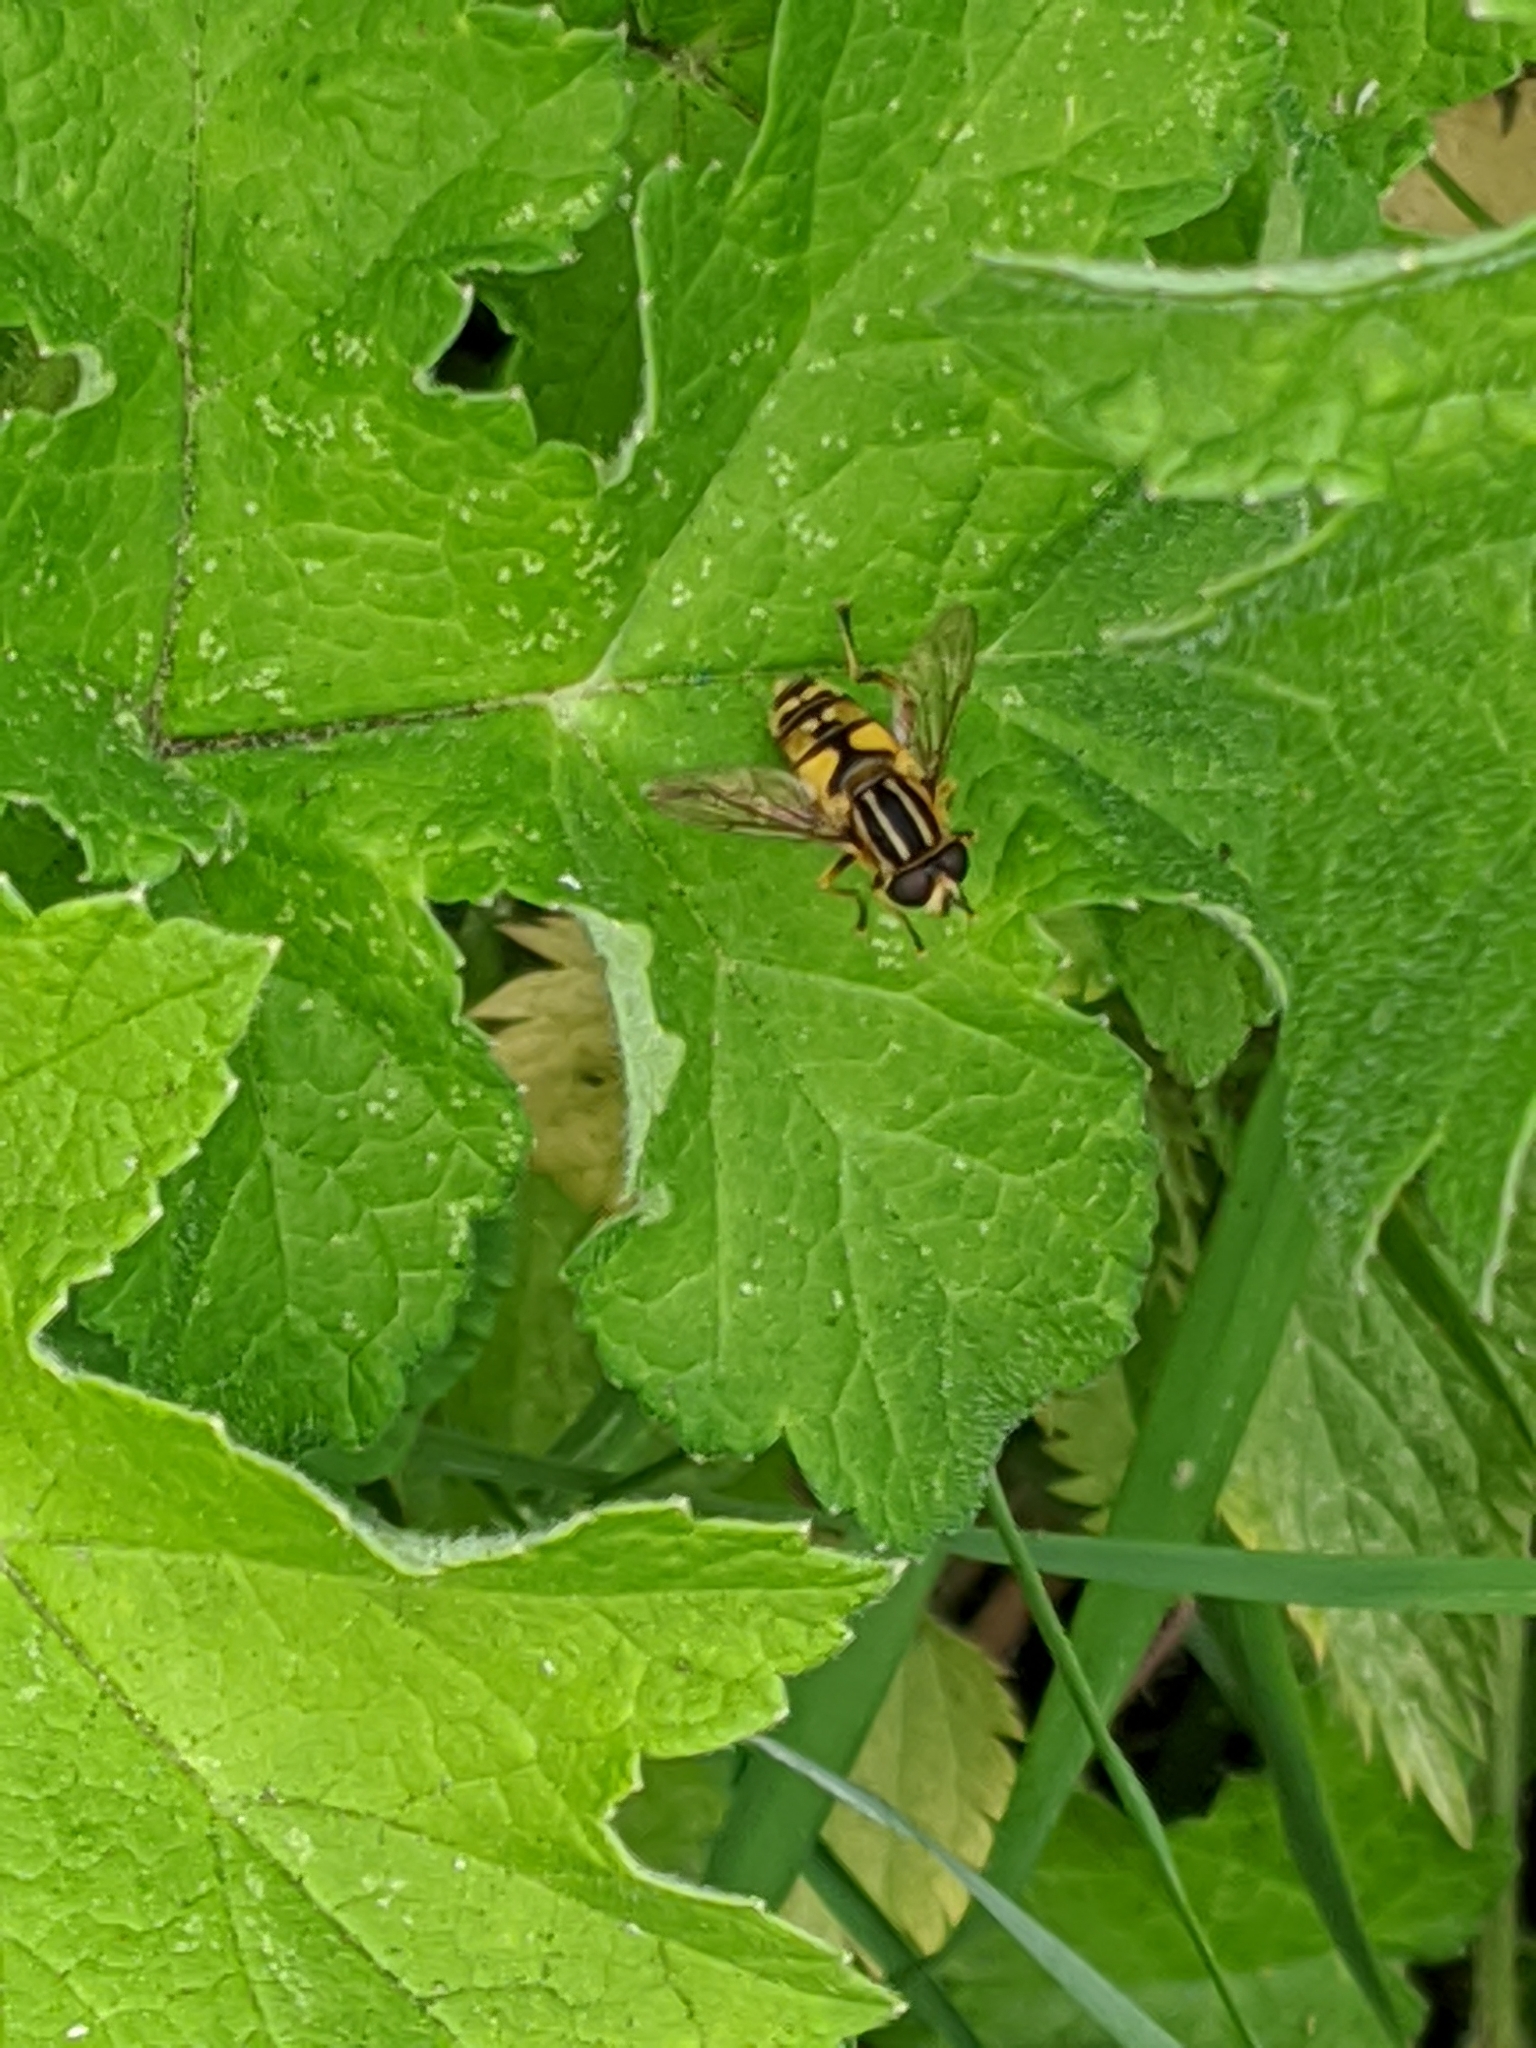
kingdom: Animalia
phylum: Arthropoda
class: Insecta
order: Diptera
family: Syrphidae
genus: Helophilus
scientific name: Helophilus pendulus
